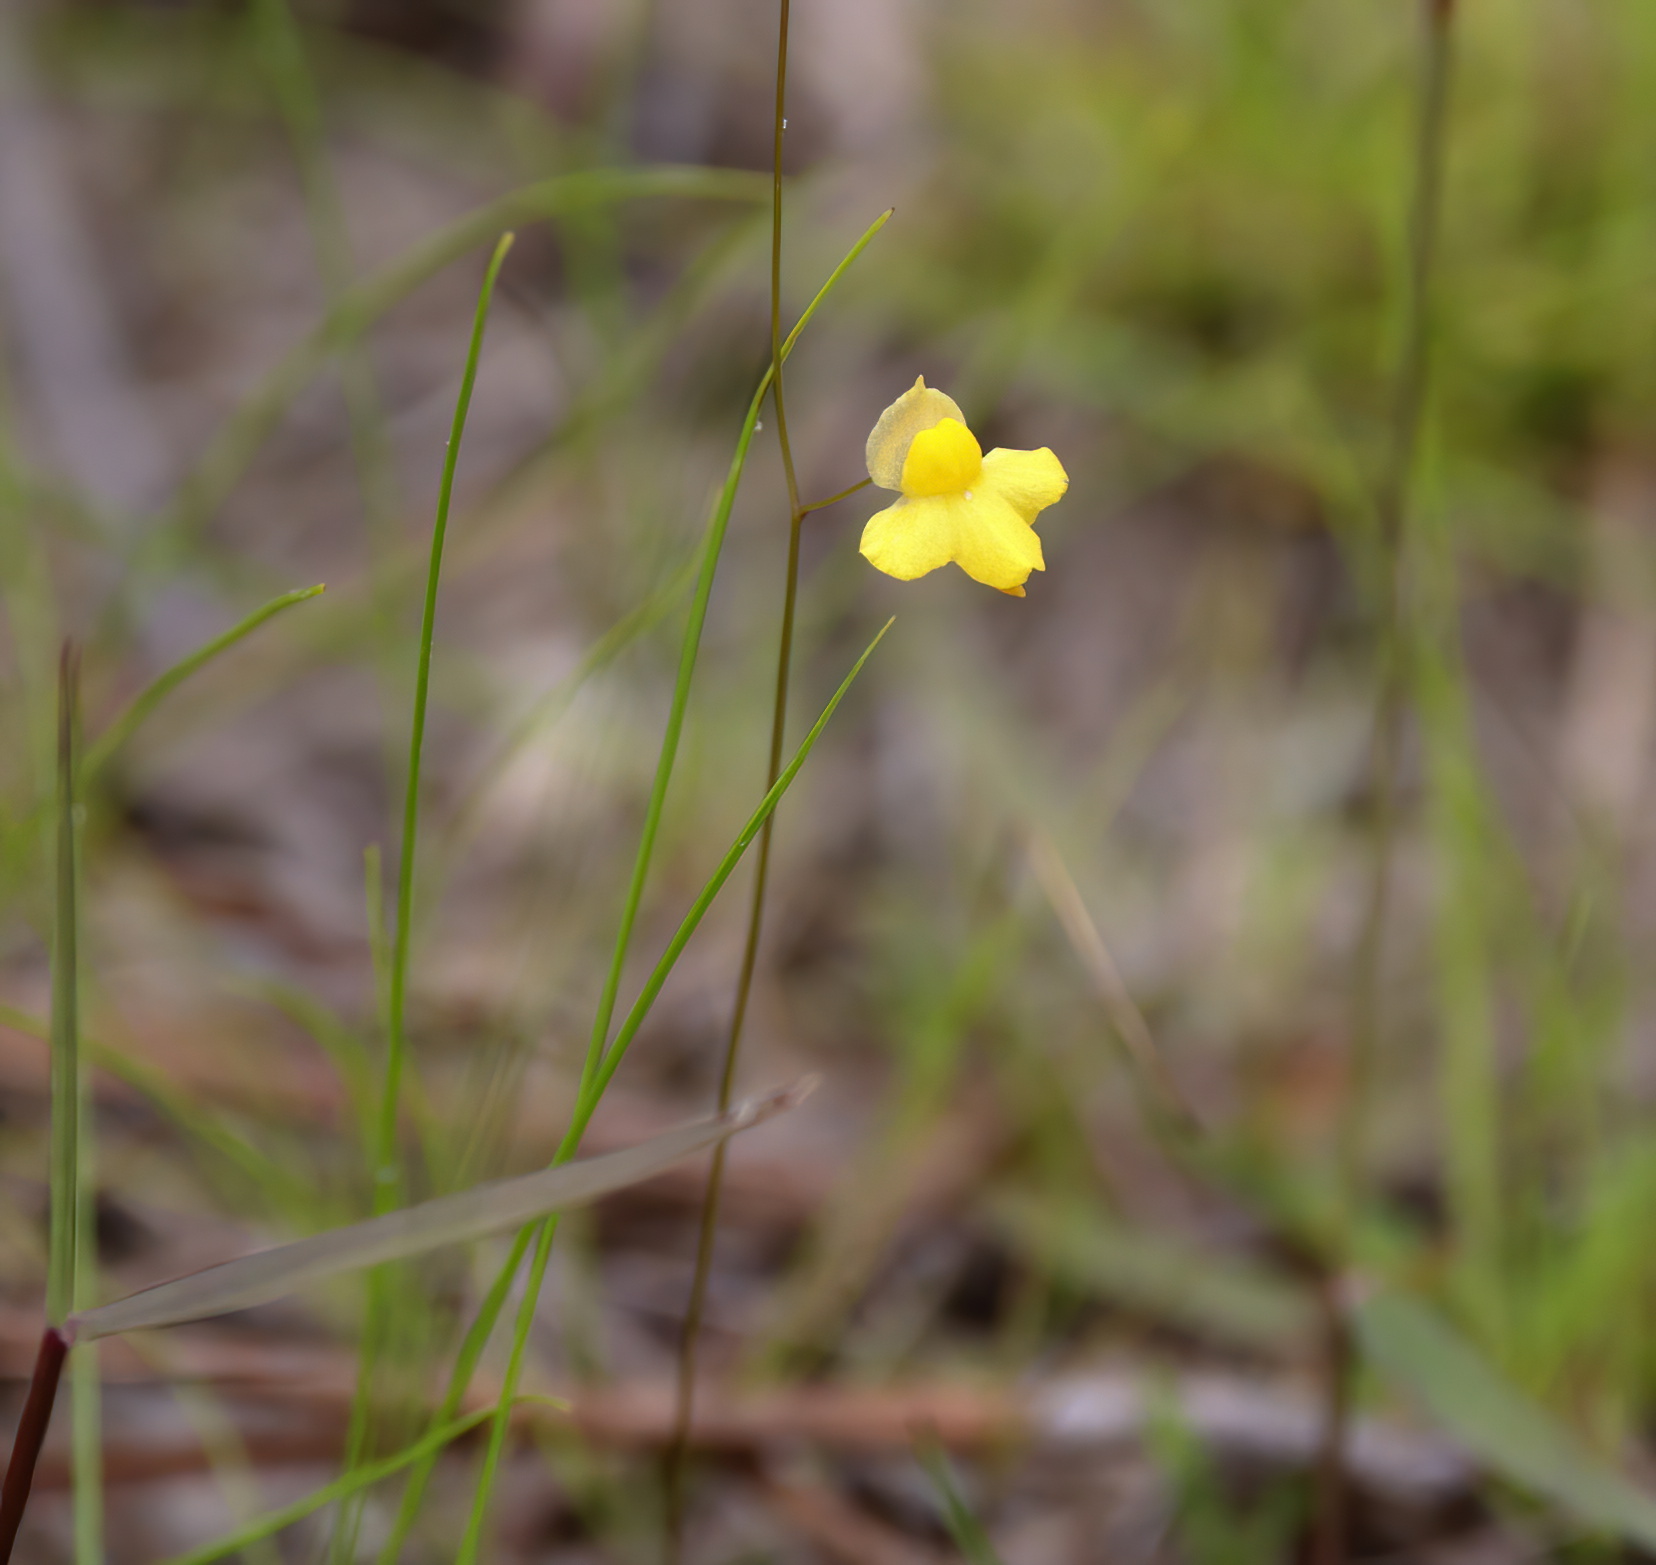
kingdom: Plantae
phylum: Tracheophyta
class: Magnoliopsida
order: Lamiales
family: Lentibulariaceae
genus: Utricularia
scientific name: Utricularia subulata
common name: Tiny bladderwort
